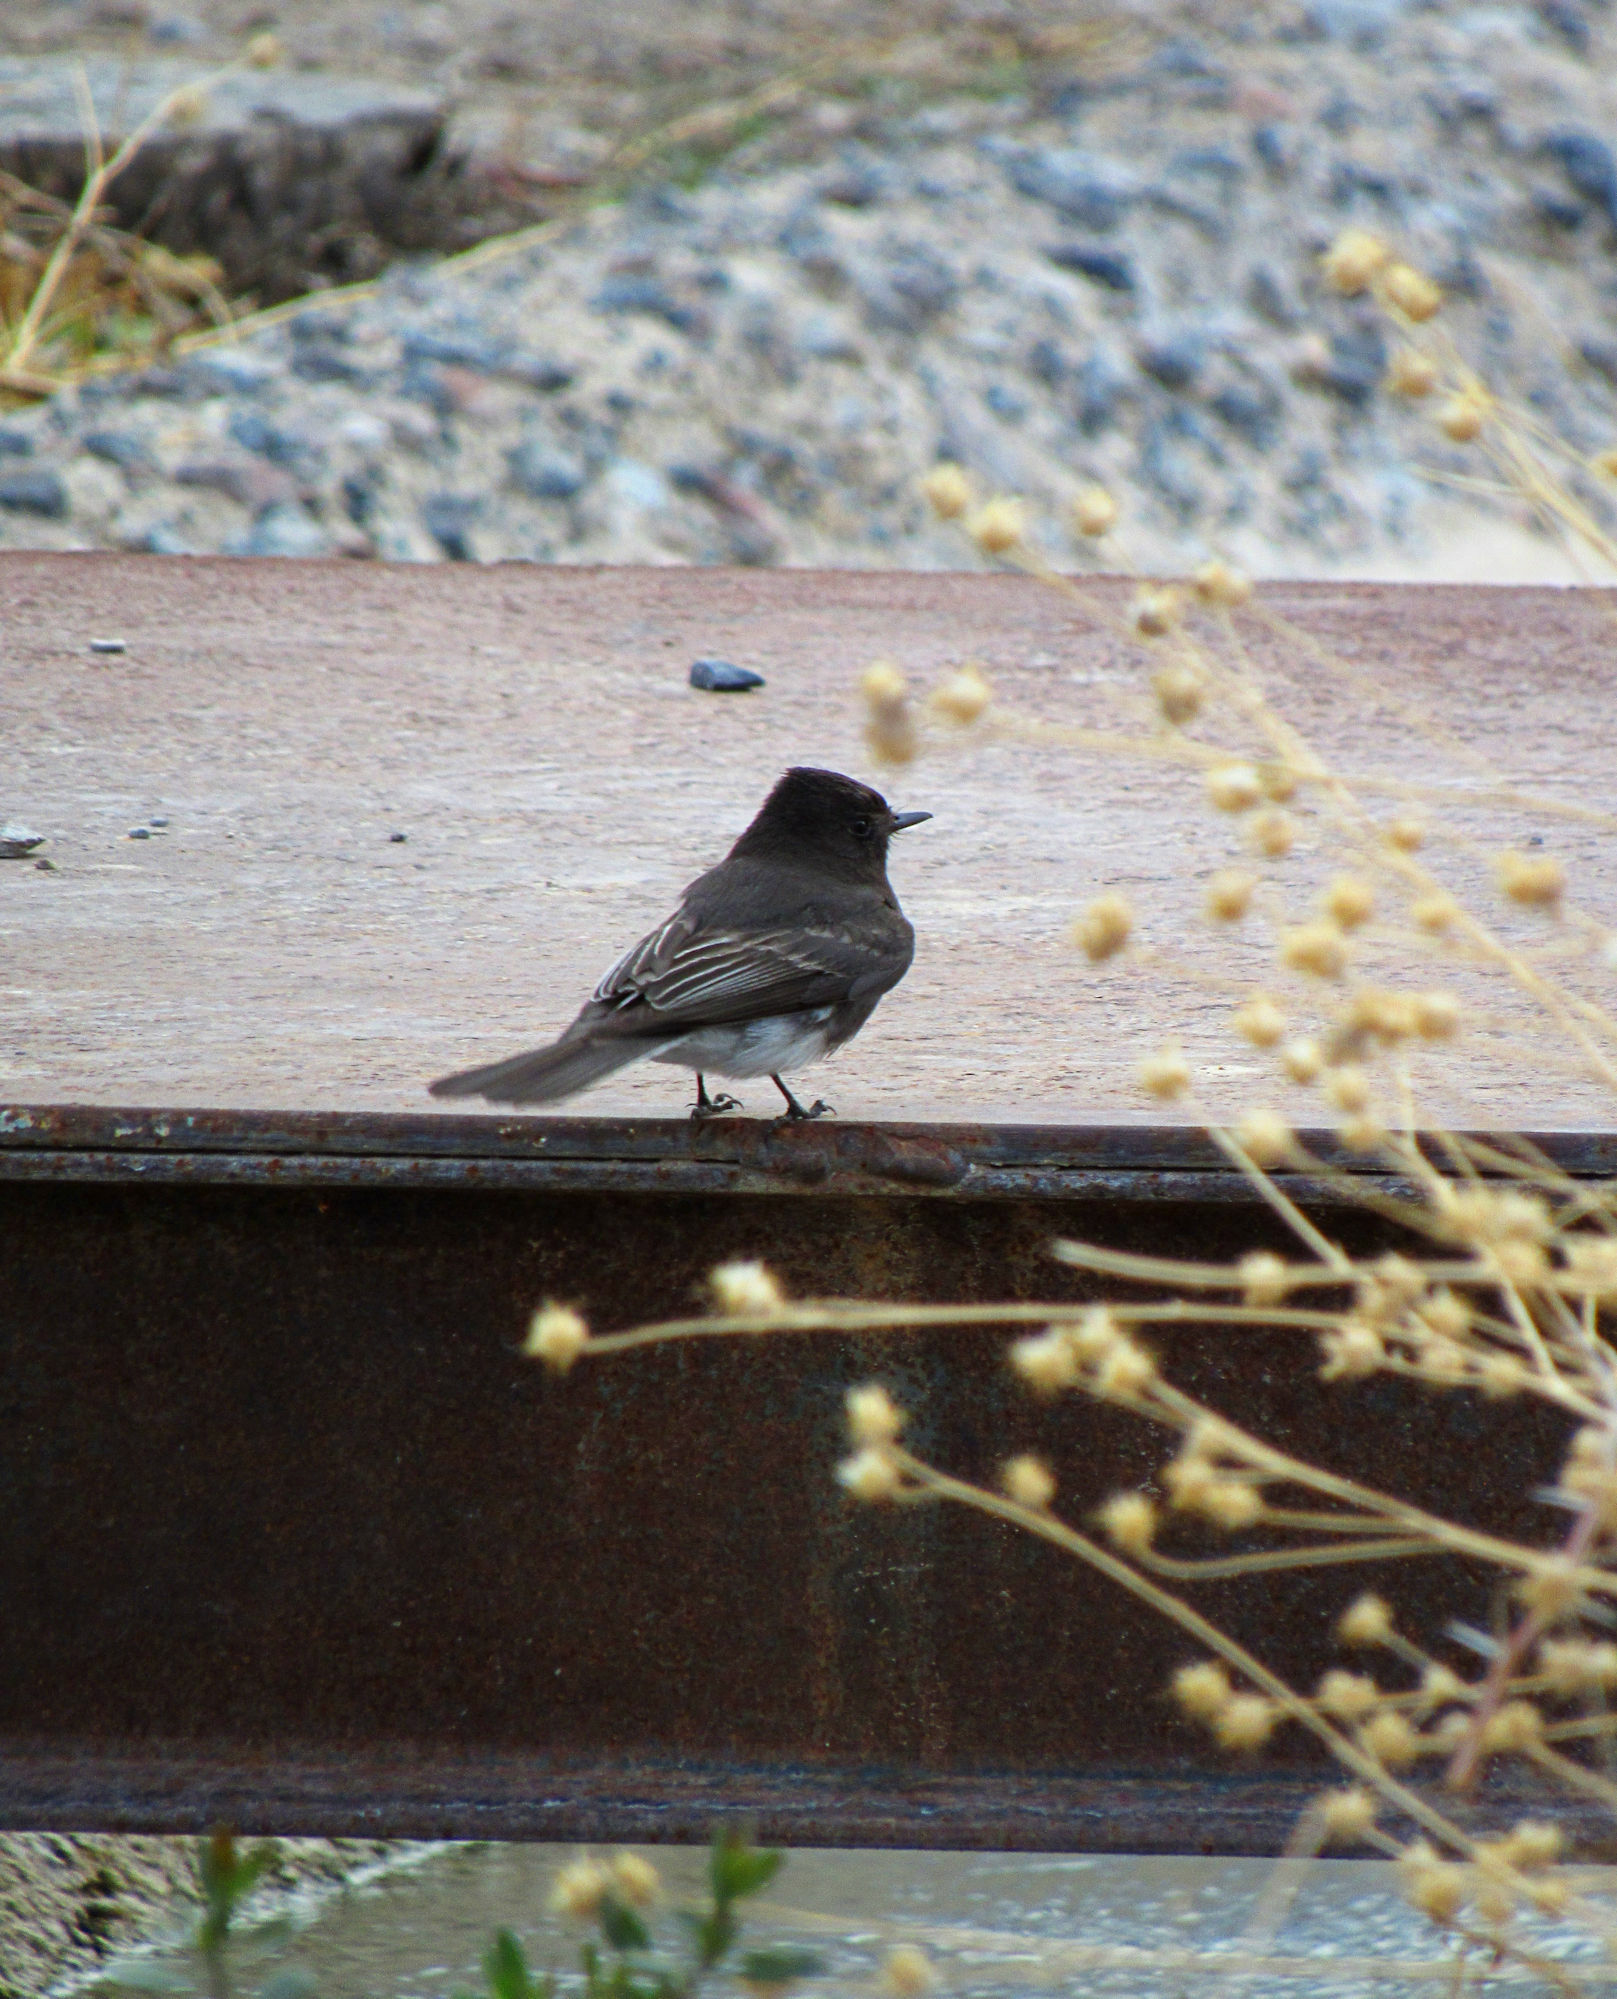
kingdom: Animalia
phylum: Chordata
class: Aves
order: Passeriformes
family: Tyrannidae
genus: Sayornis
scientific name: Sayornis nigricans
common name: Black phoebe
